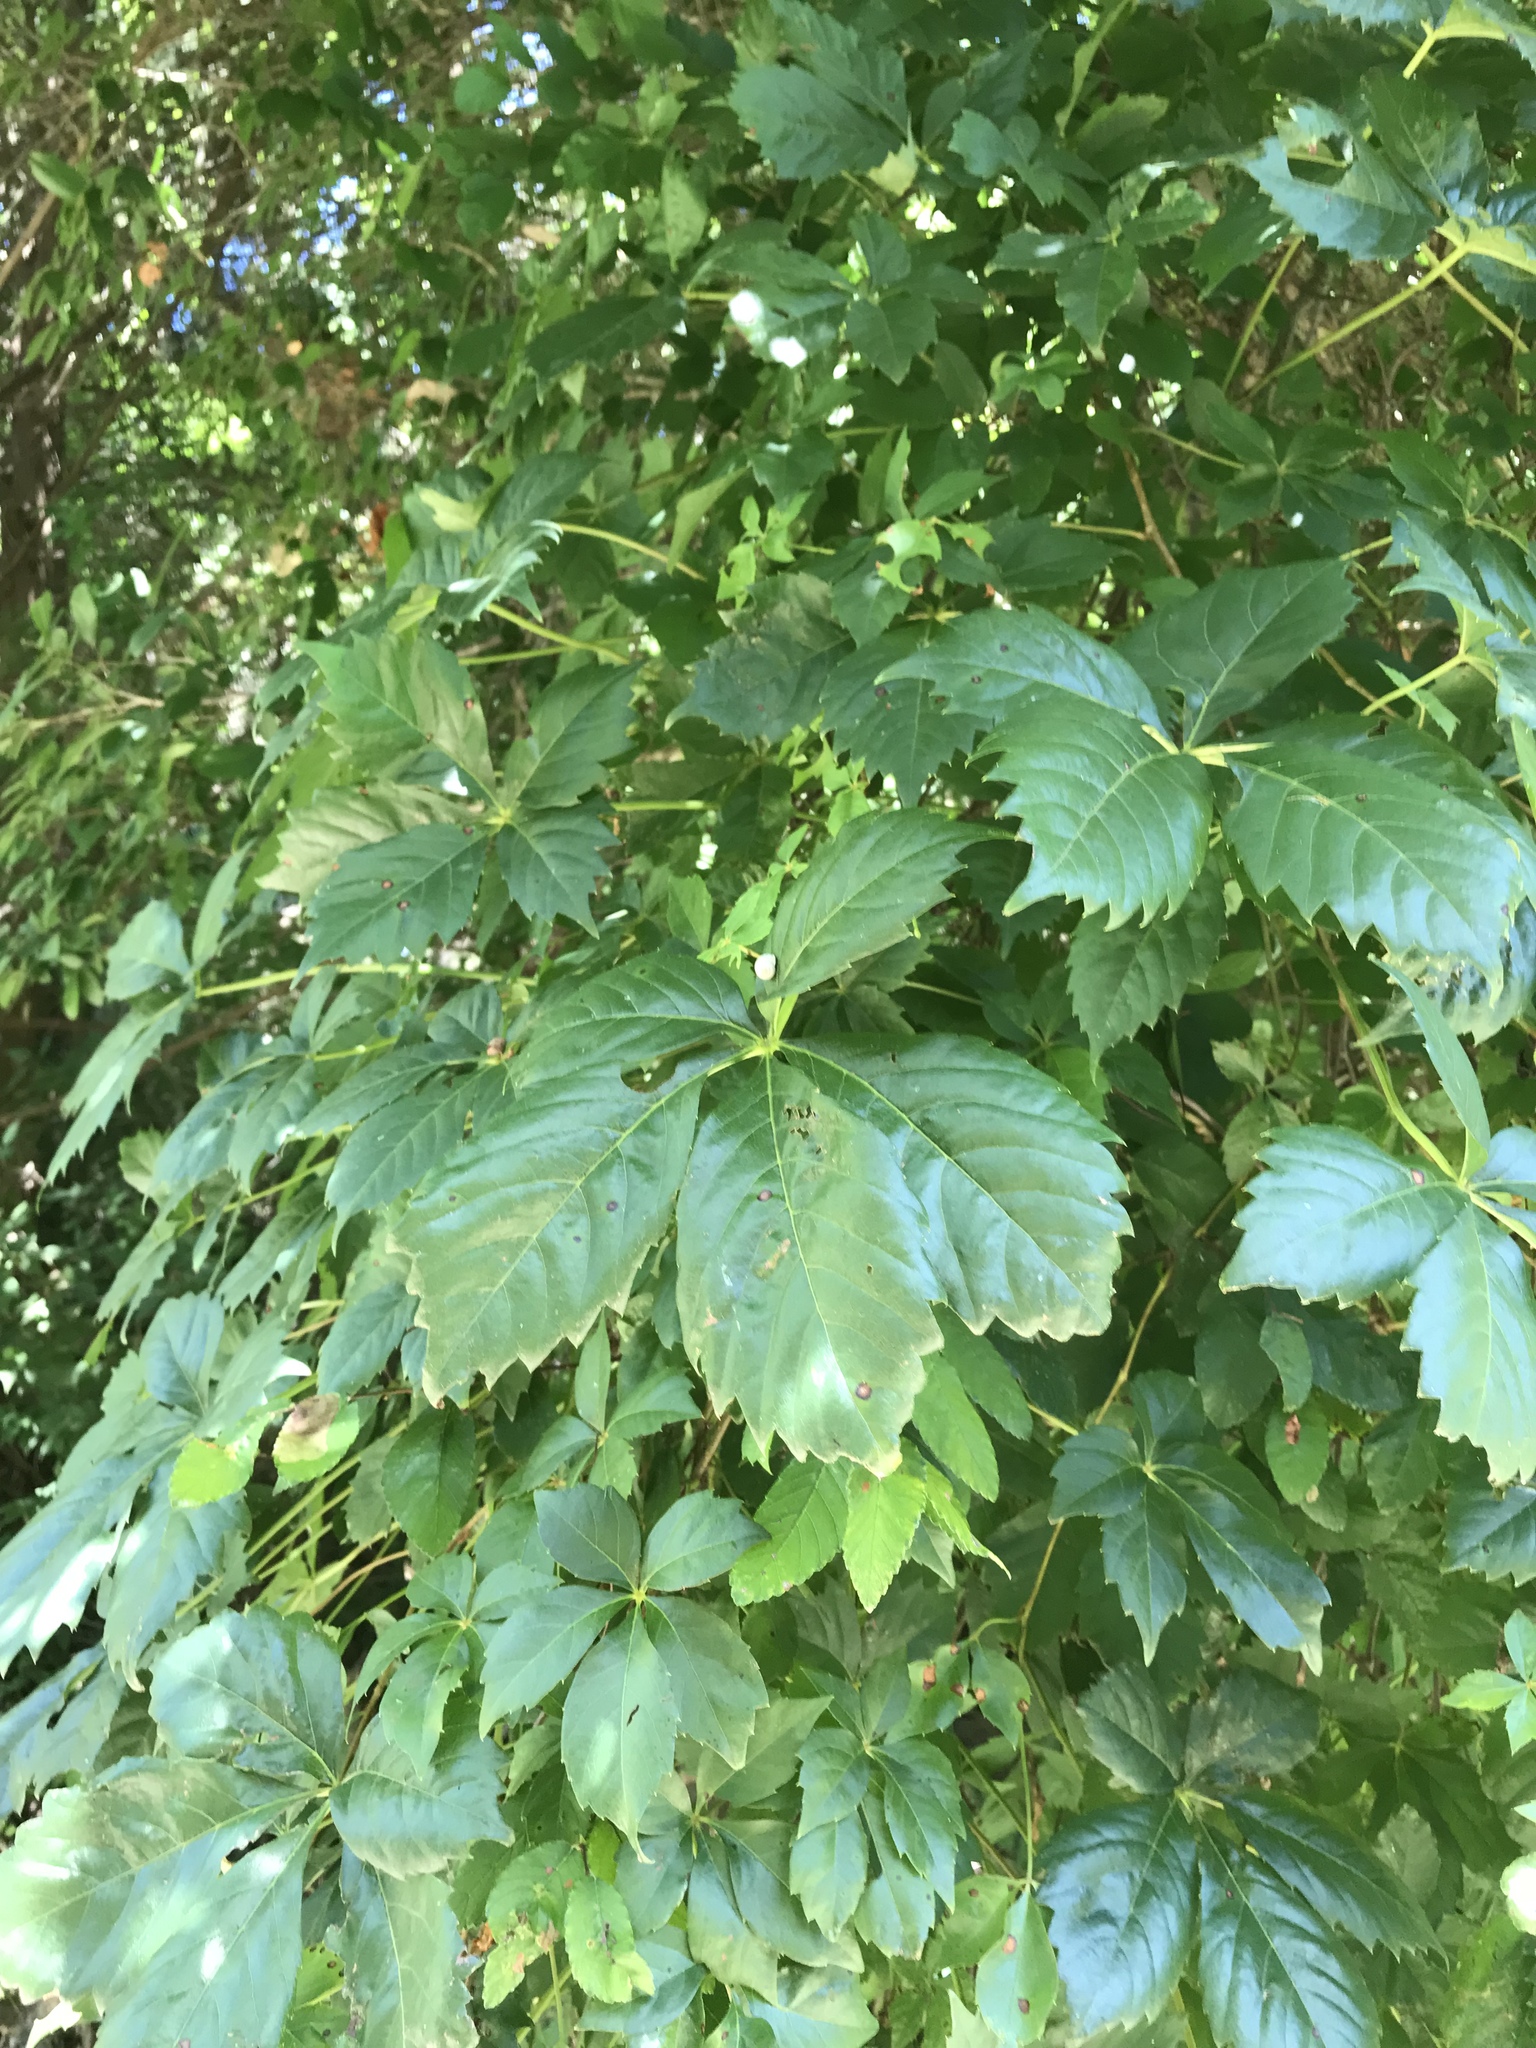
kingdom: Plantae
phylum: Tracheophyta
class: Magnoliopsida
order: Vitales
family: Vitaceae
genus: Parthenocissus
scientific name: Parthenocissus quinquefolia
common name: Virginia-creeper
